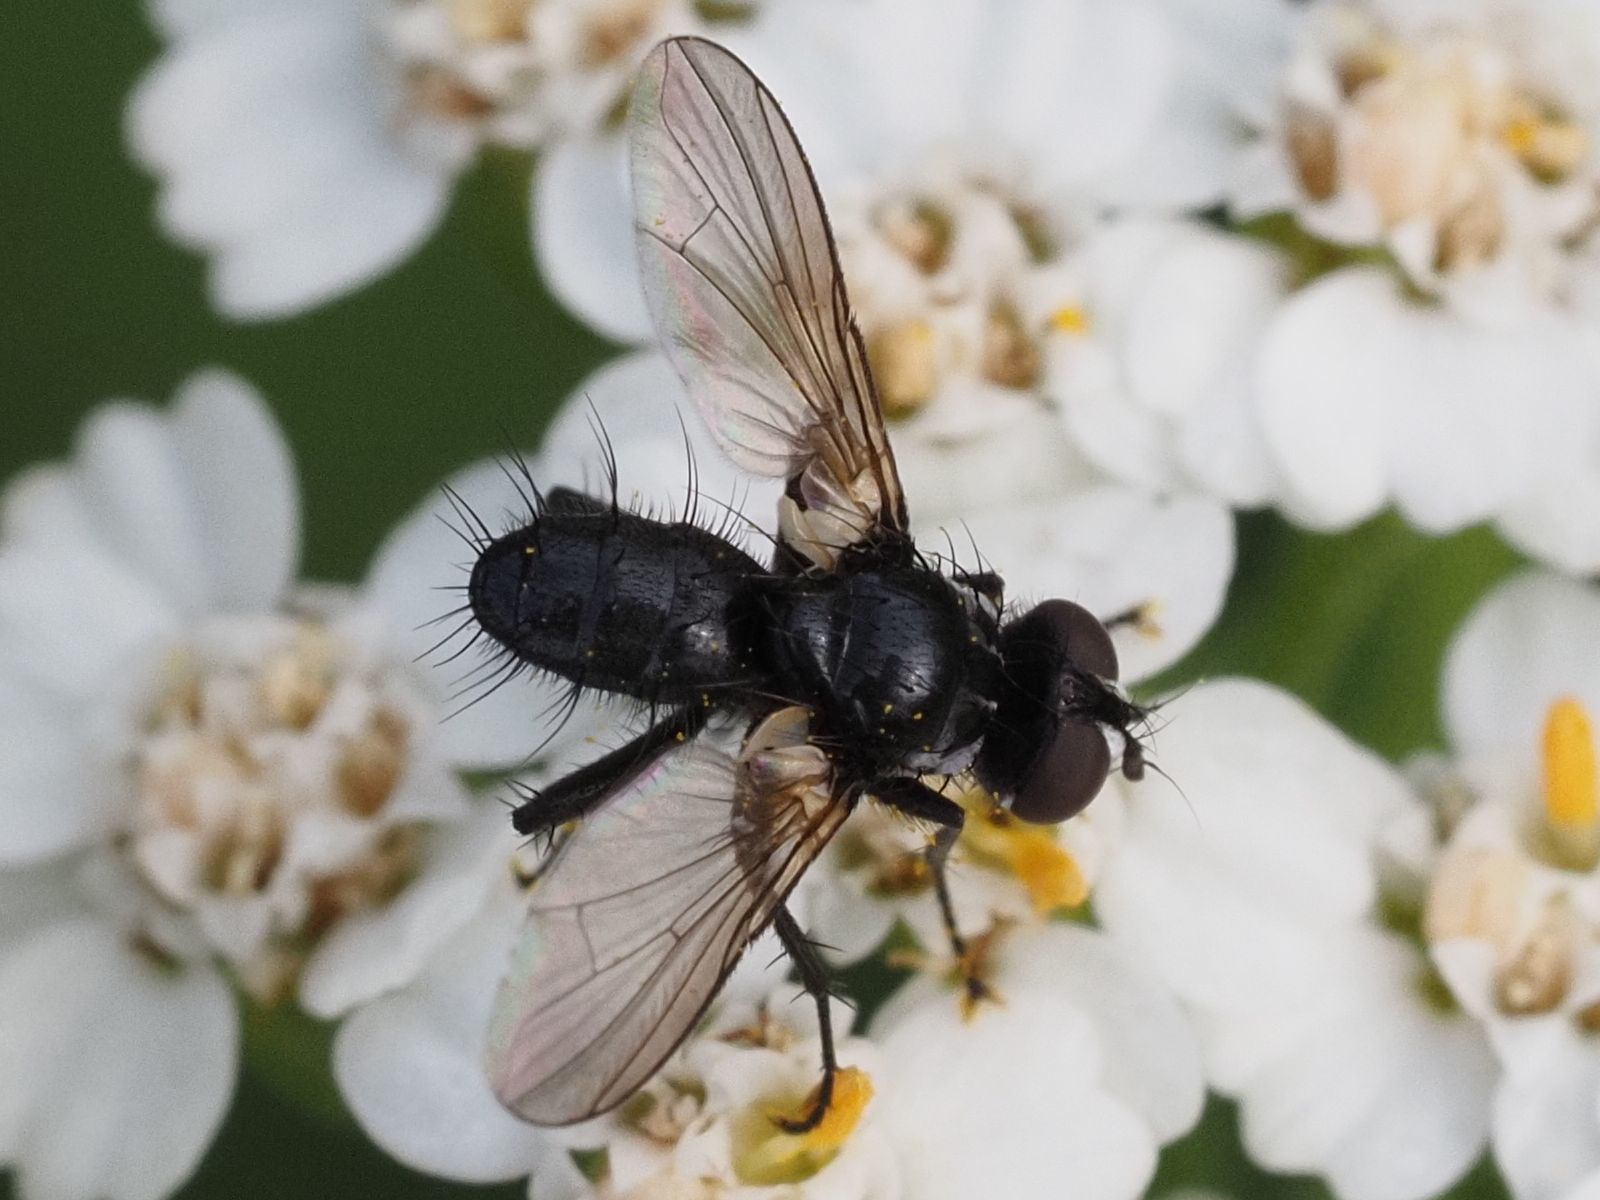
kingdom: Animalia
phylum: Arthropoda
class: Insecta
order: Diptera
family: Tachinidae
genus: Phania
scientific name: Phania funesta
